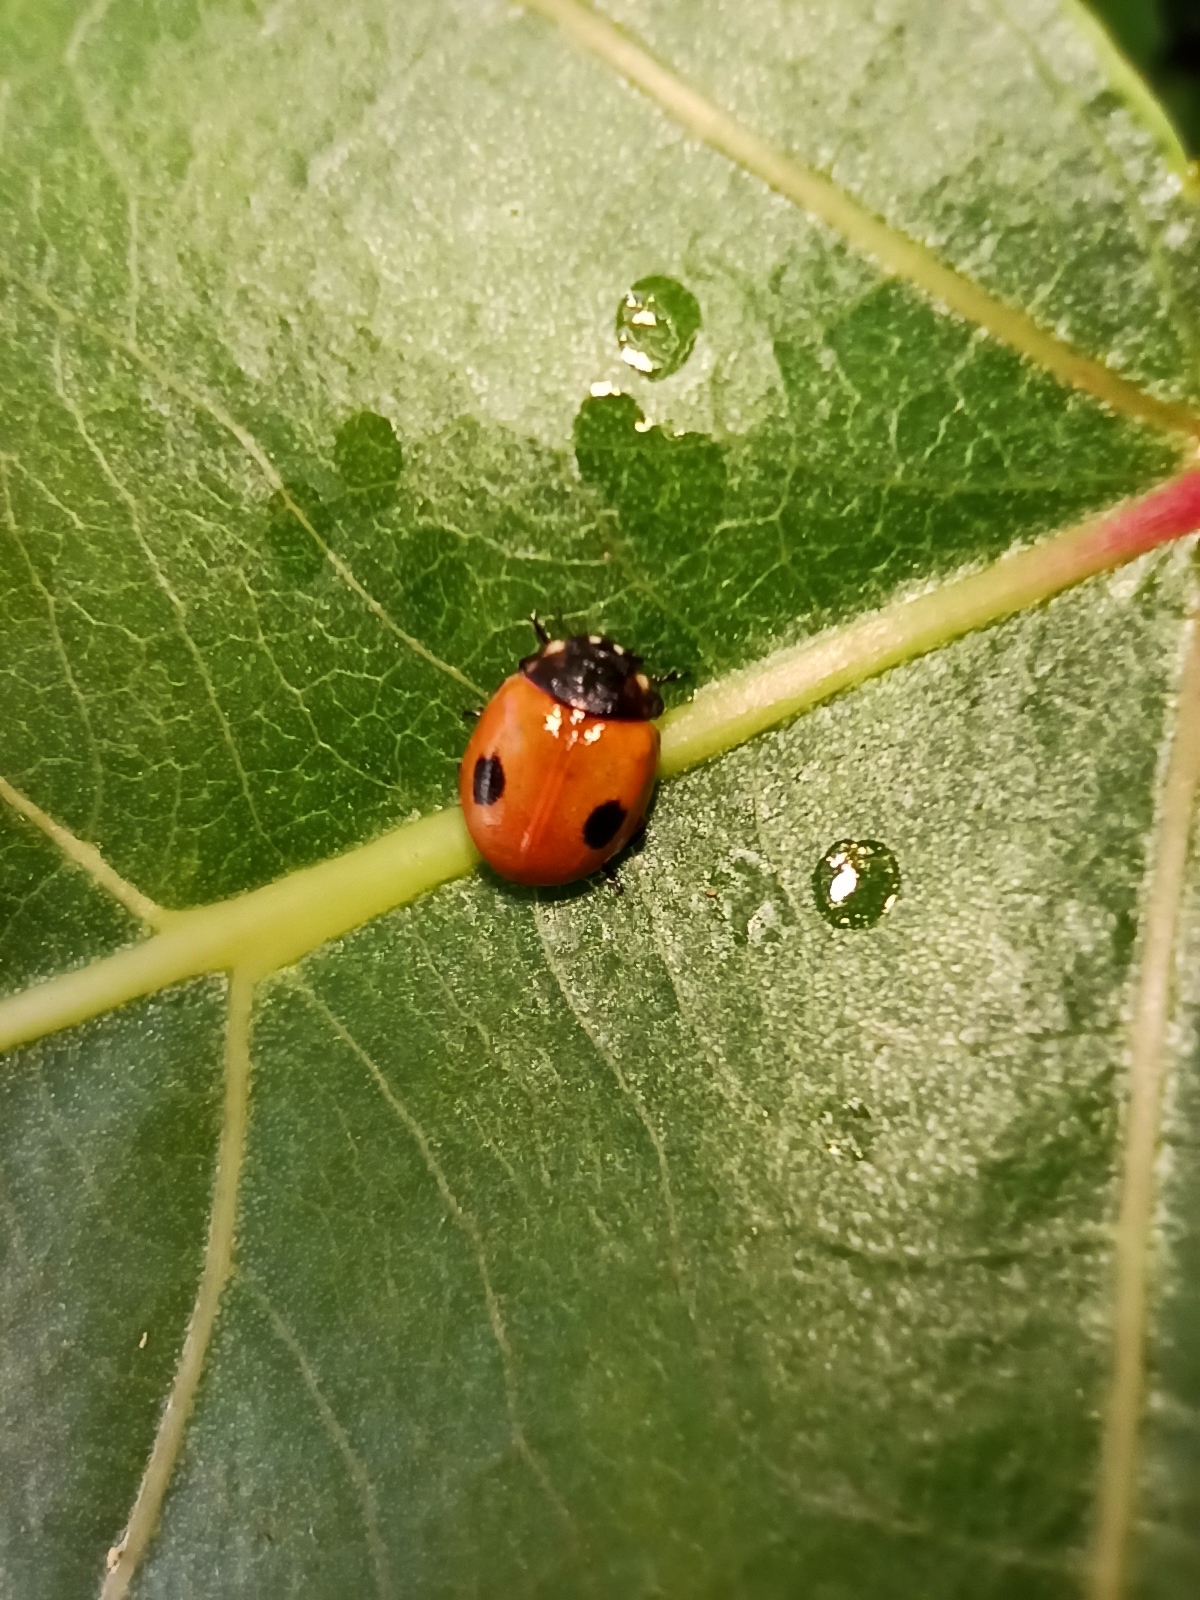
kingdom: Animalia
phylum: Arthropoda
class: Insecta
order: Coleoptera
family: Coccinellidae
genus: Adalia
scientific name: Adalia bipunctata
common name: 2-spot ladybird
